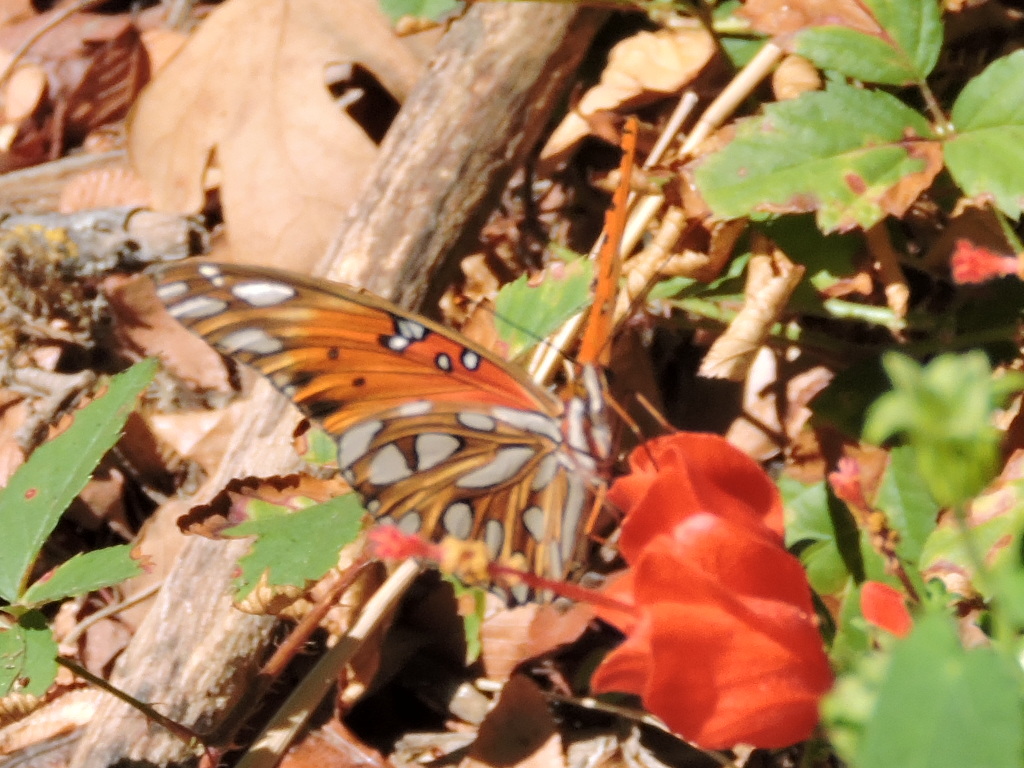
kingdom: Animalia
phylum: Arthropoda
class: Insecta
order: Lepidoptera
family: Nymphalidae
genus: Dione
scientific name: Dione vanillae
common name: Gulf fritillary
